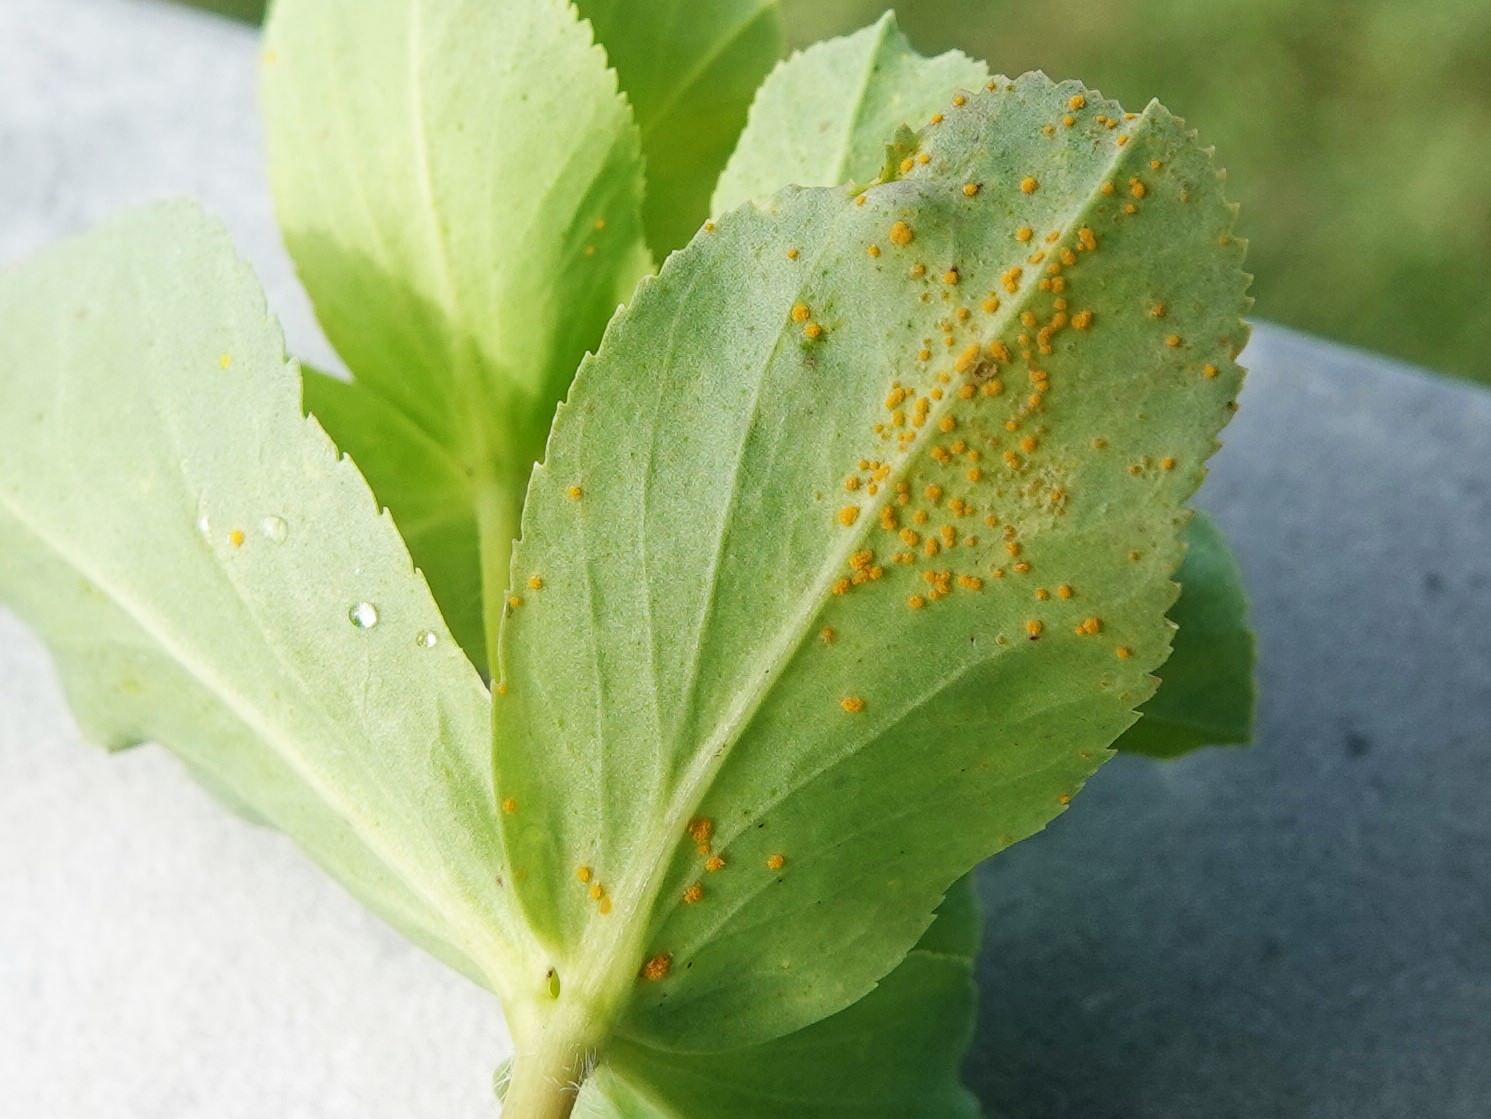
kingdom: Fungi
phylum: Basidiomycota
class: Pucciniomycetes
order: Pucciniales
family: Melampsoraceae
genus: Melampsora
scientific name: Melampsora euphorbiae
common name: Spurge rust
